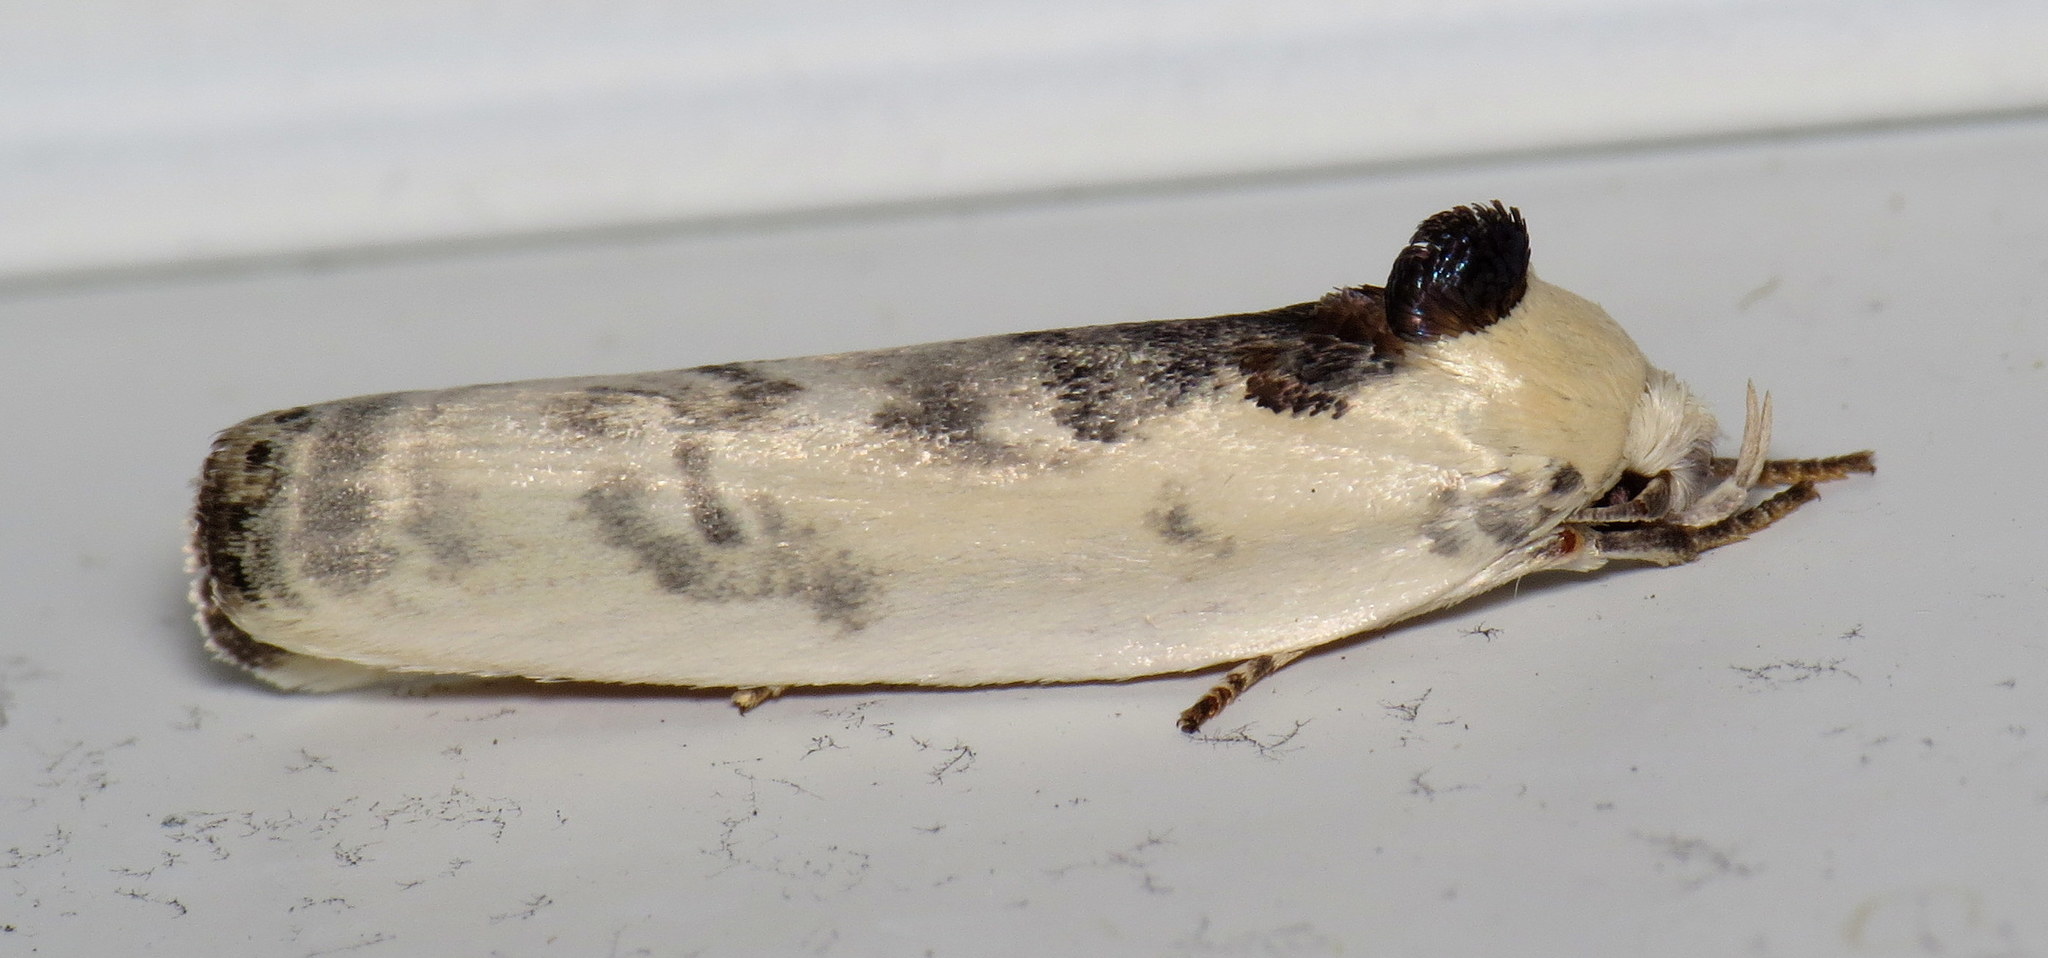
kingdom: Animalia
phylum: Arthropoda
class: Insecta
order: Lepidoptera
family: Depressariidae
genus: Antaeotricha
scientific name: Antaeotricha schlaegeri
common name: Schlaeger's fruitworm moth
